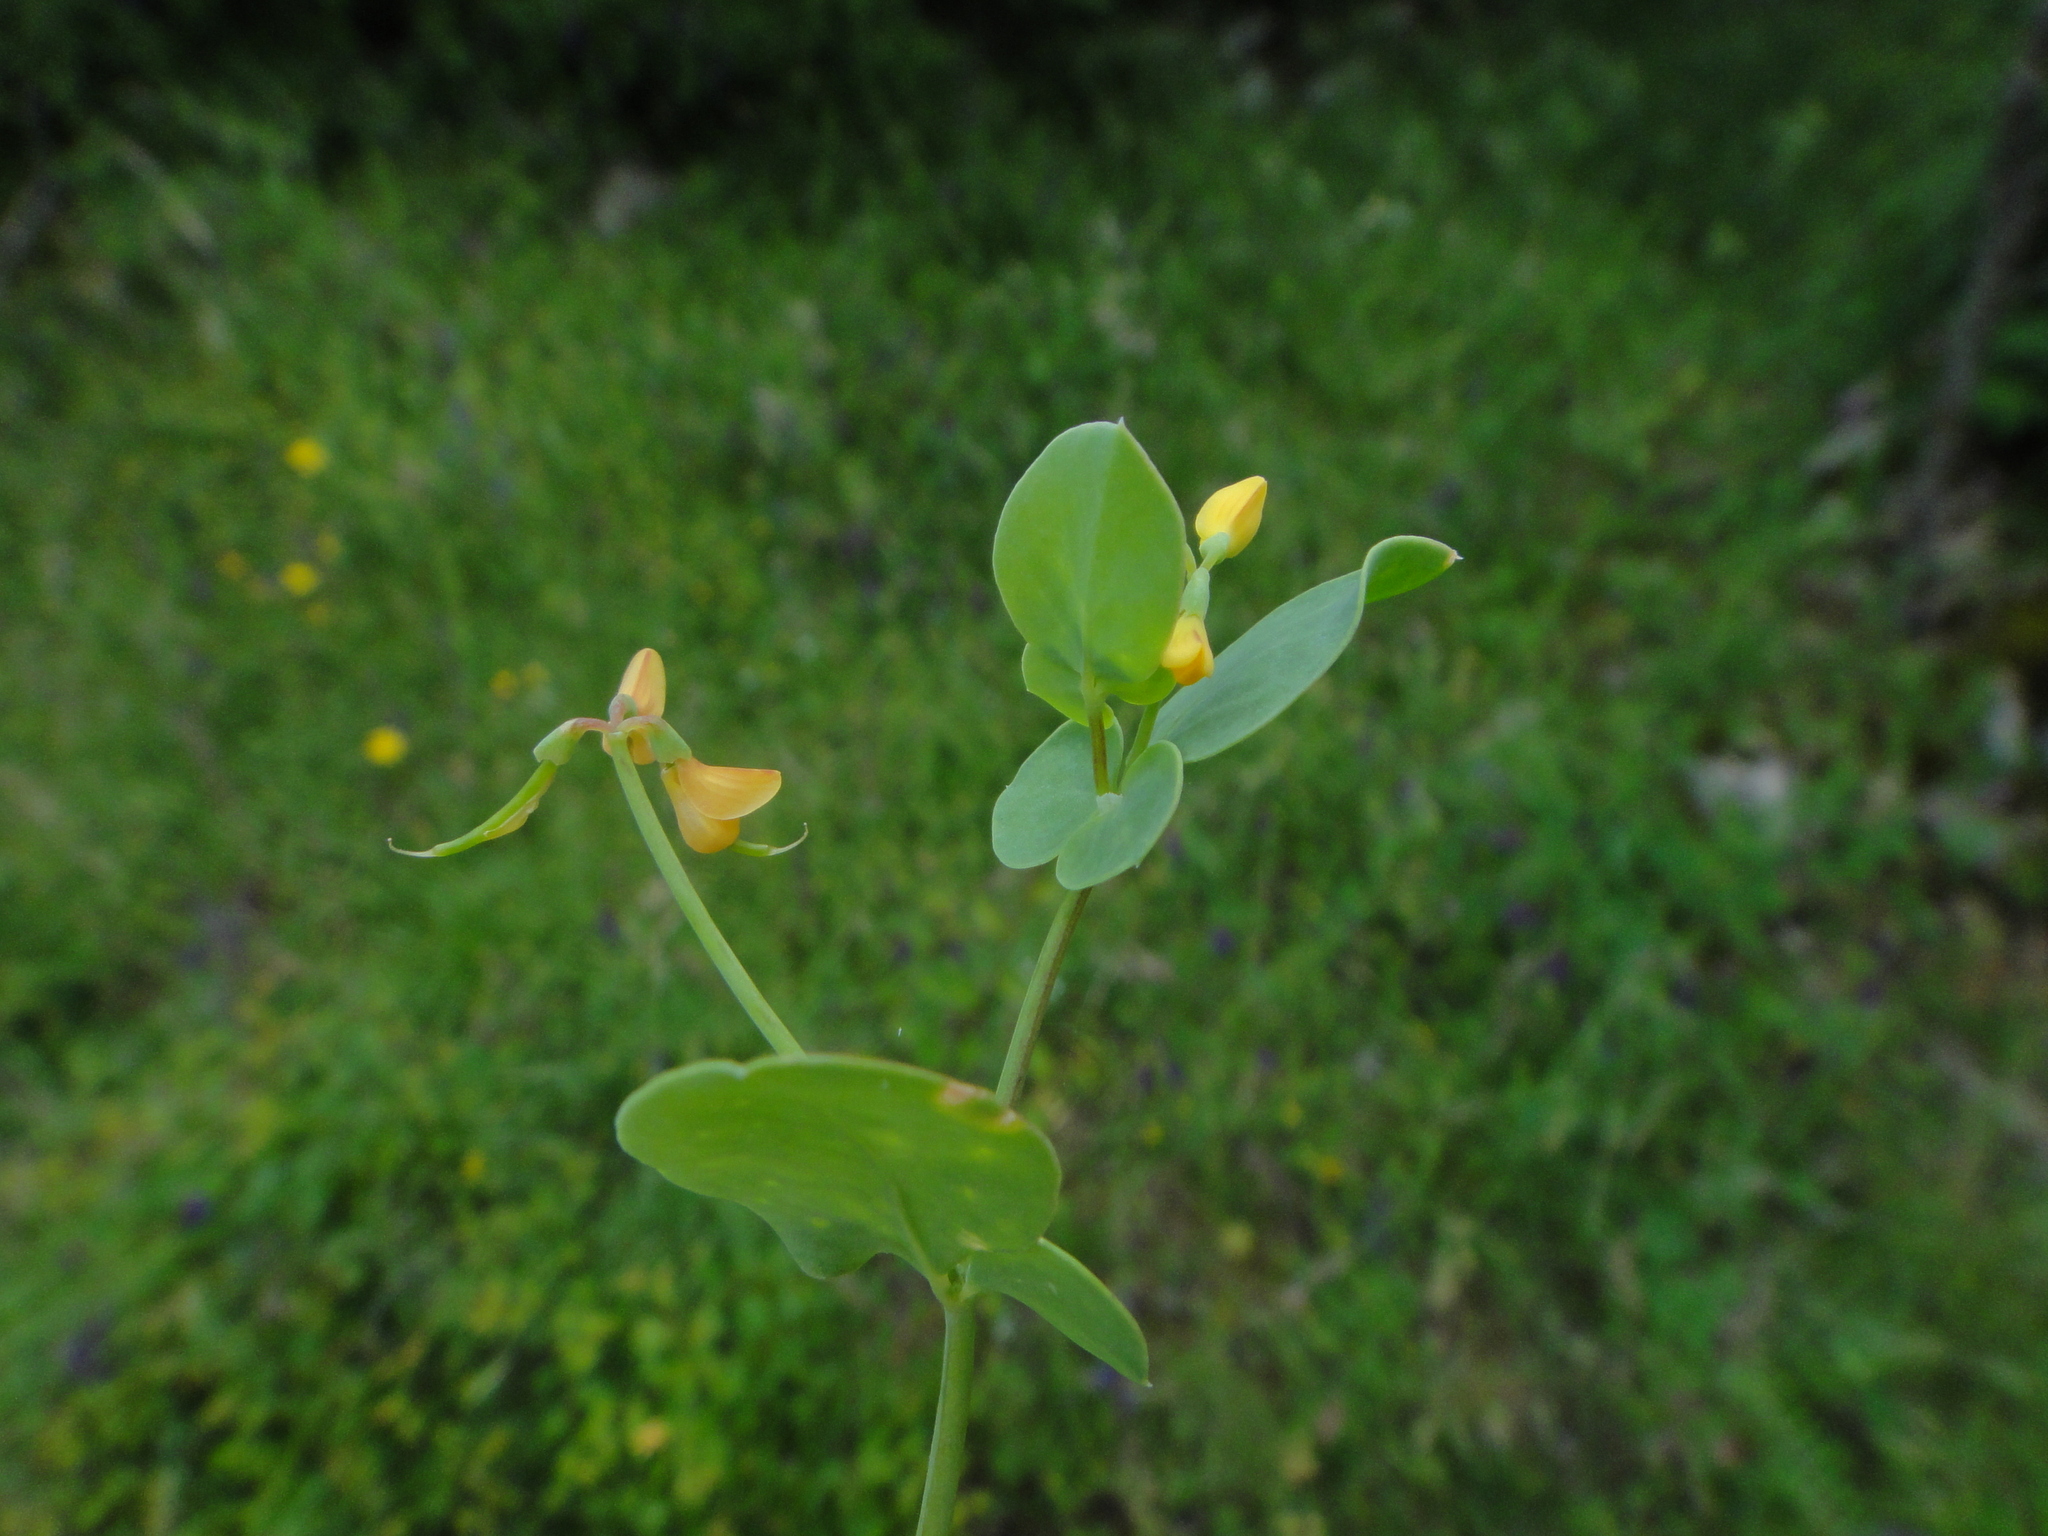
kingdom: Plantae
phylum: Tracheophyta
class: Magnoliopsida
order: Fabales
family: Fabaceae
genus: Coronilla
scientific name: Coronilla scorpioides
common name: Annual scorpion-vetch
